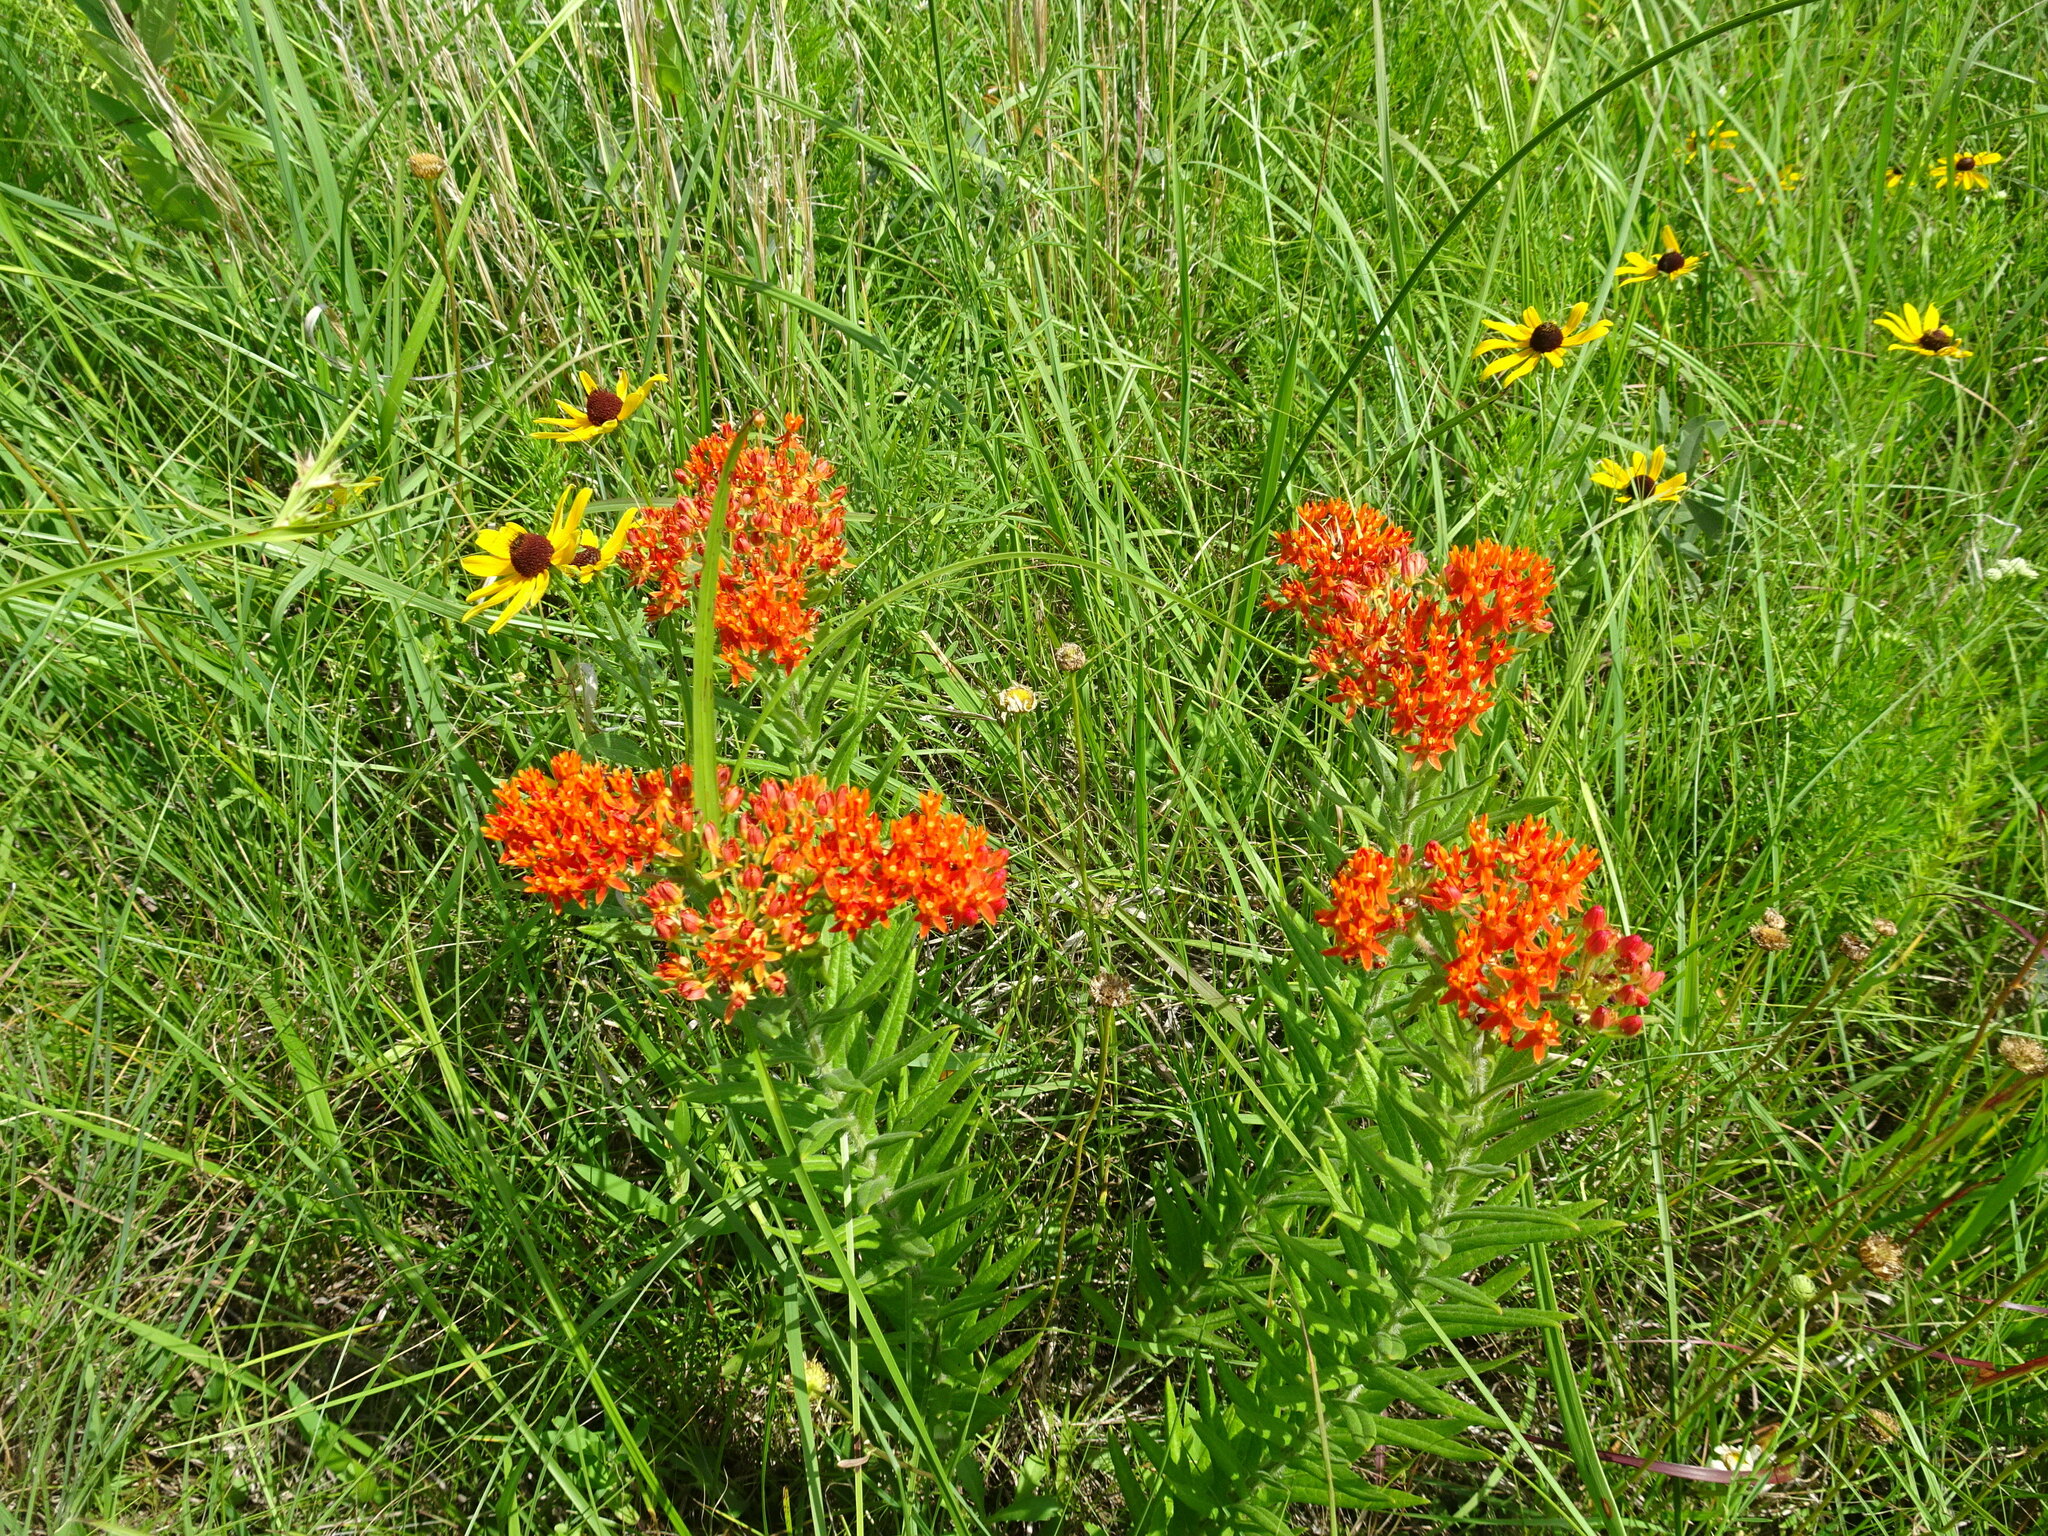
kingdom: Plantae
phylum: Tracheophyta
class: Magnoliopsida
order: Gentianales
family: Apocynaceae
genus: Asclepias
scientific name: Asclepias tuberosa
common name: Butterfly milkweed
